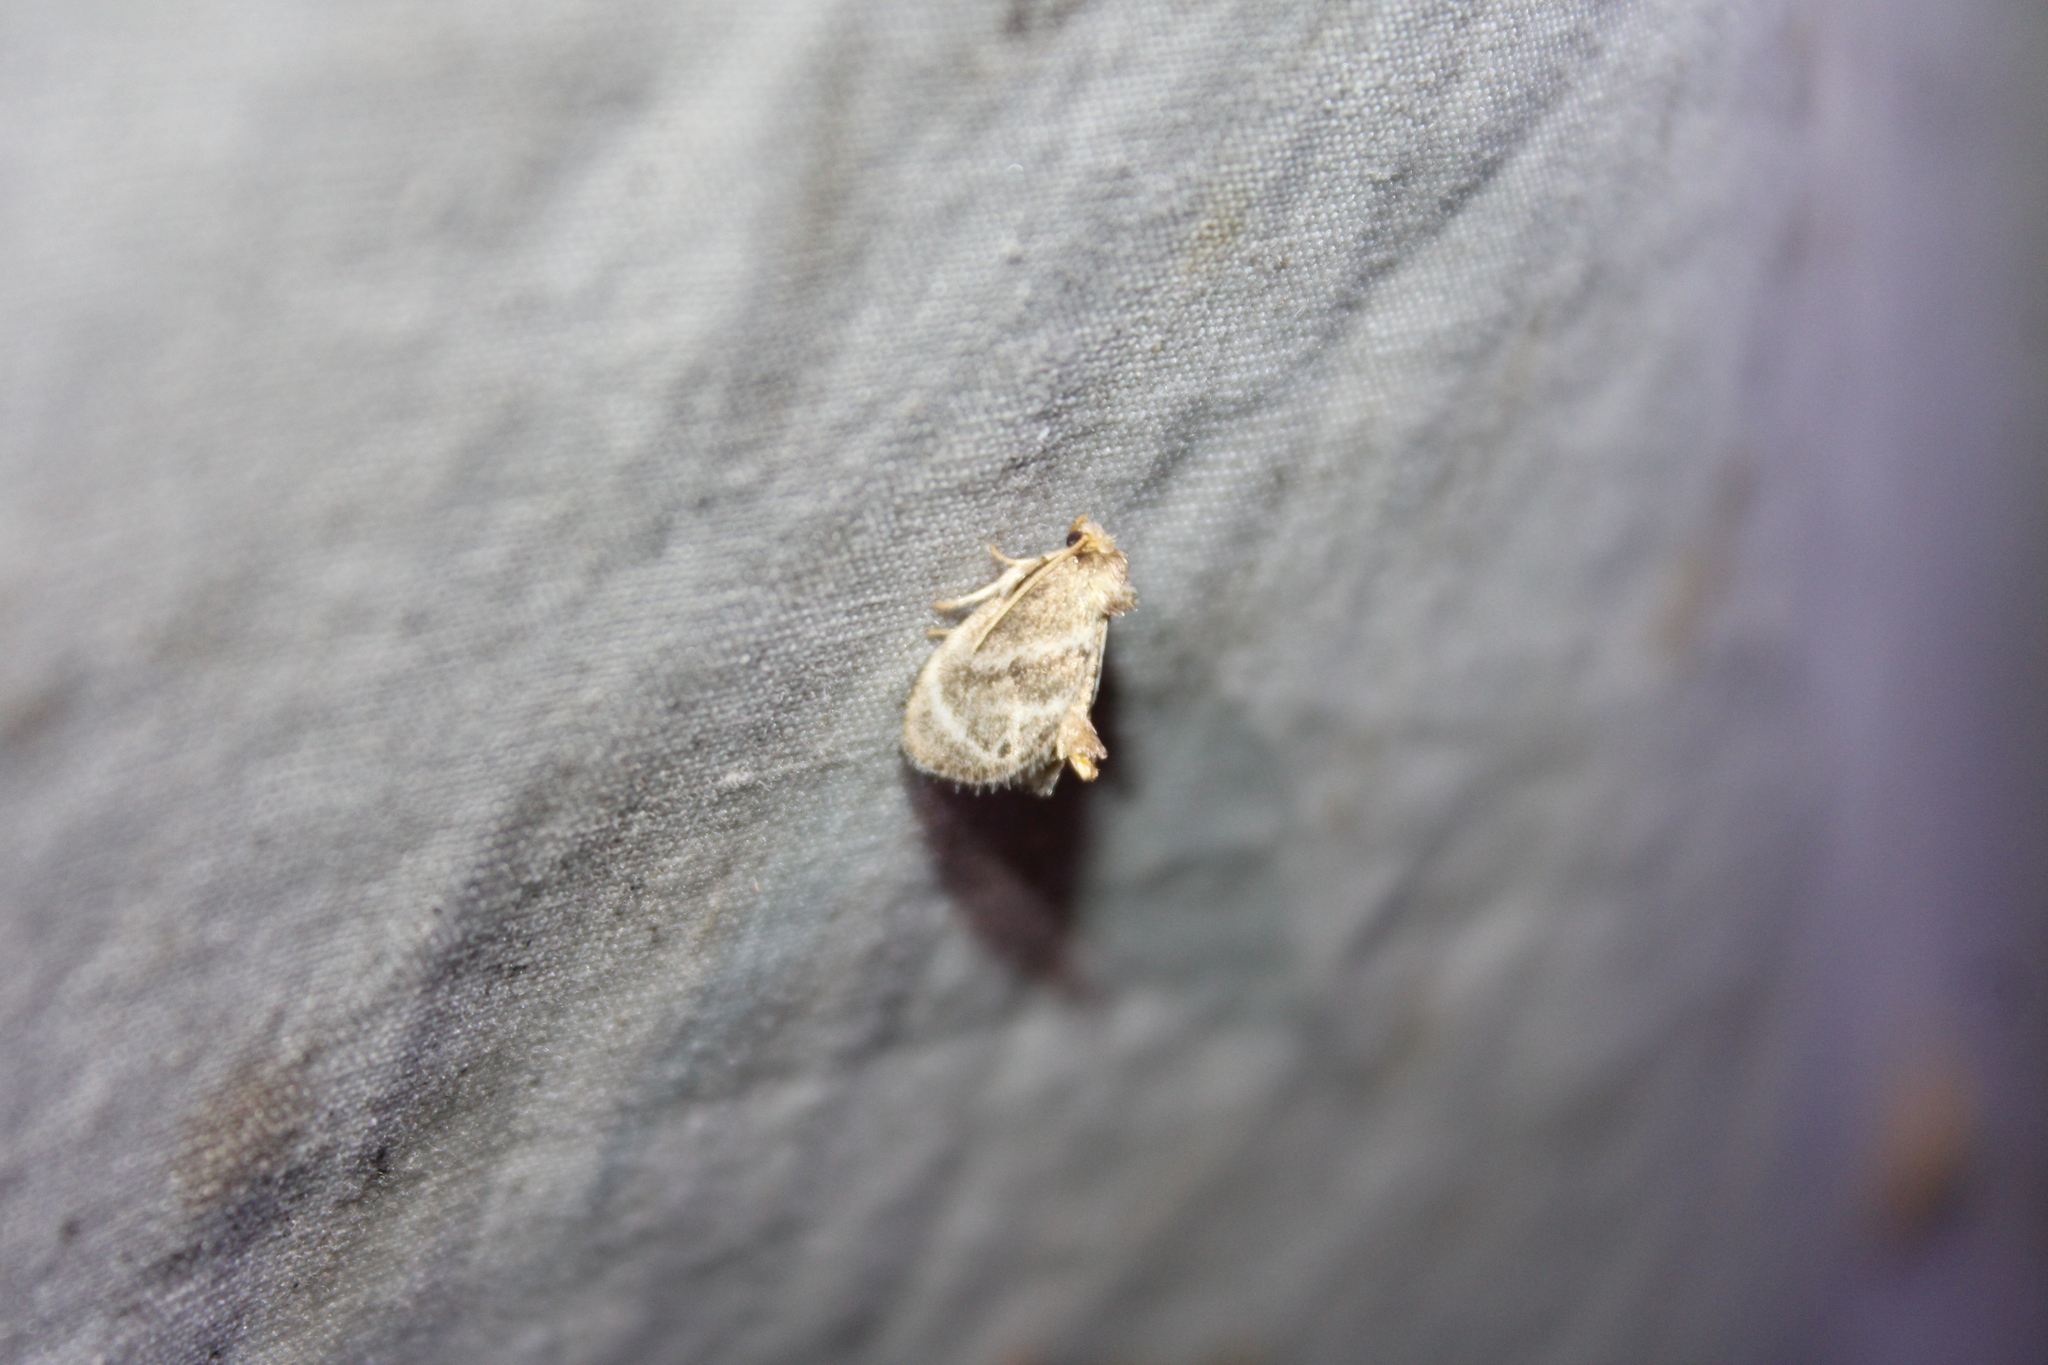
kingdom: Animalia
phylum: Arthropoda
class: Insecta
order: Lepidoptera
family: Limacodidae
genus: Packardia
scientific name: Packardia elegans
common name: Elegant tailed slug moth
